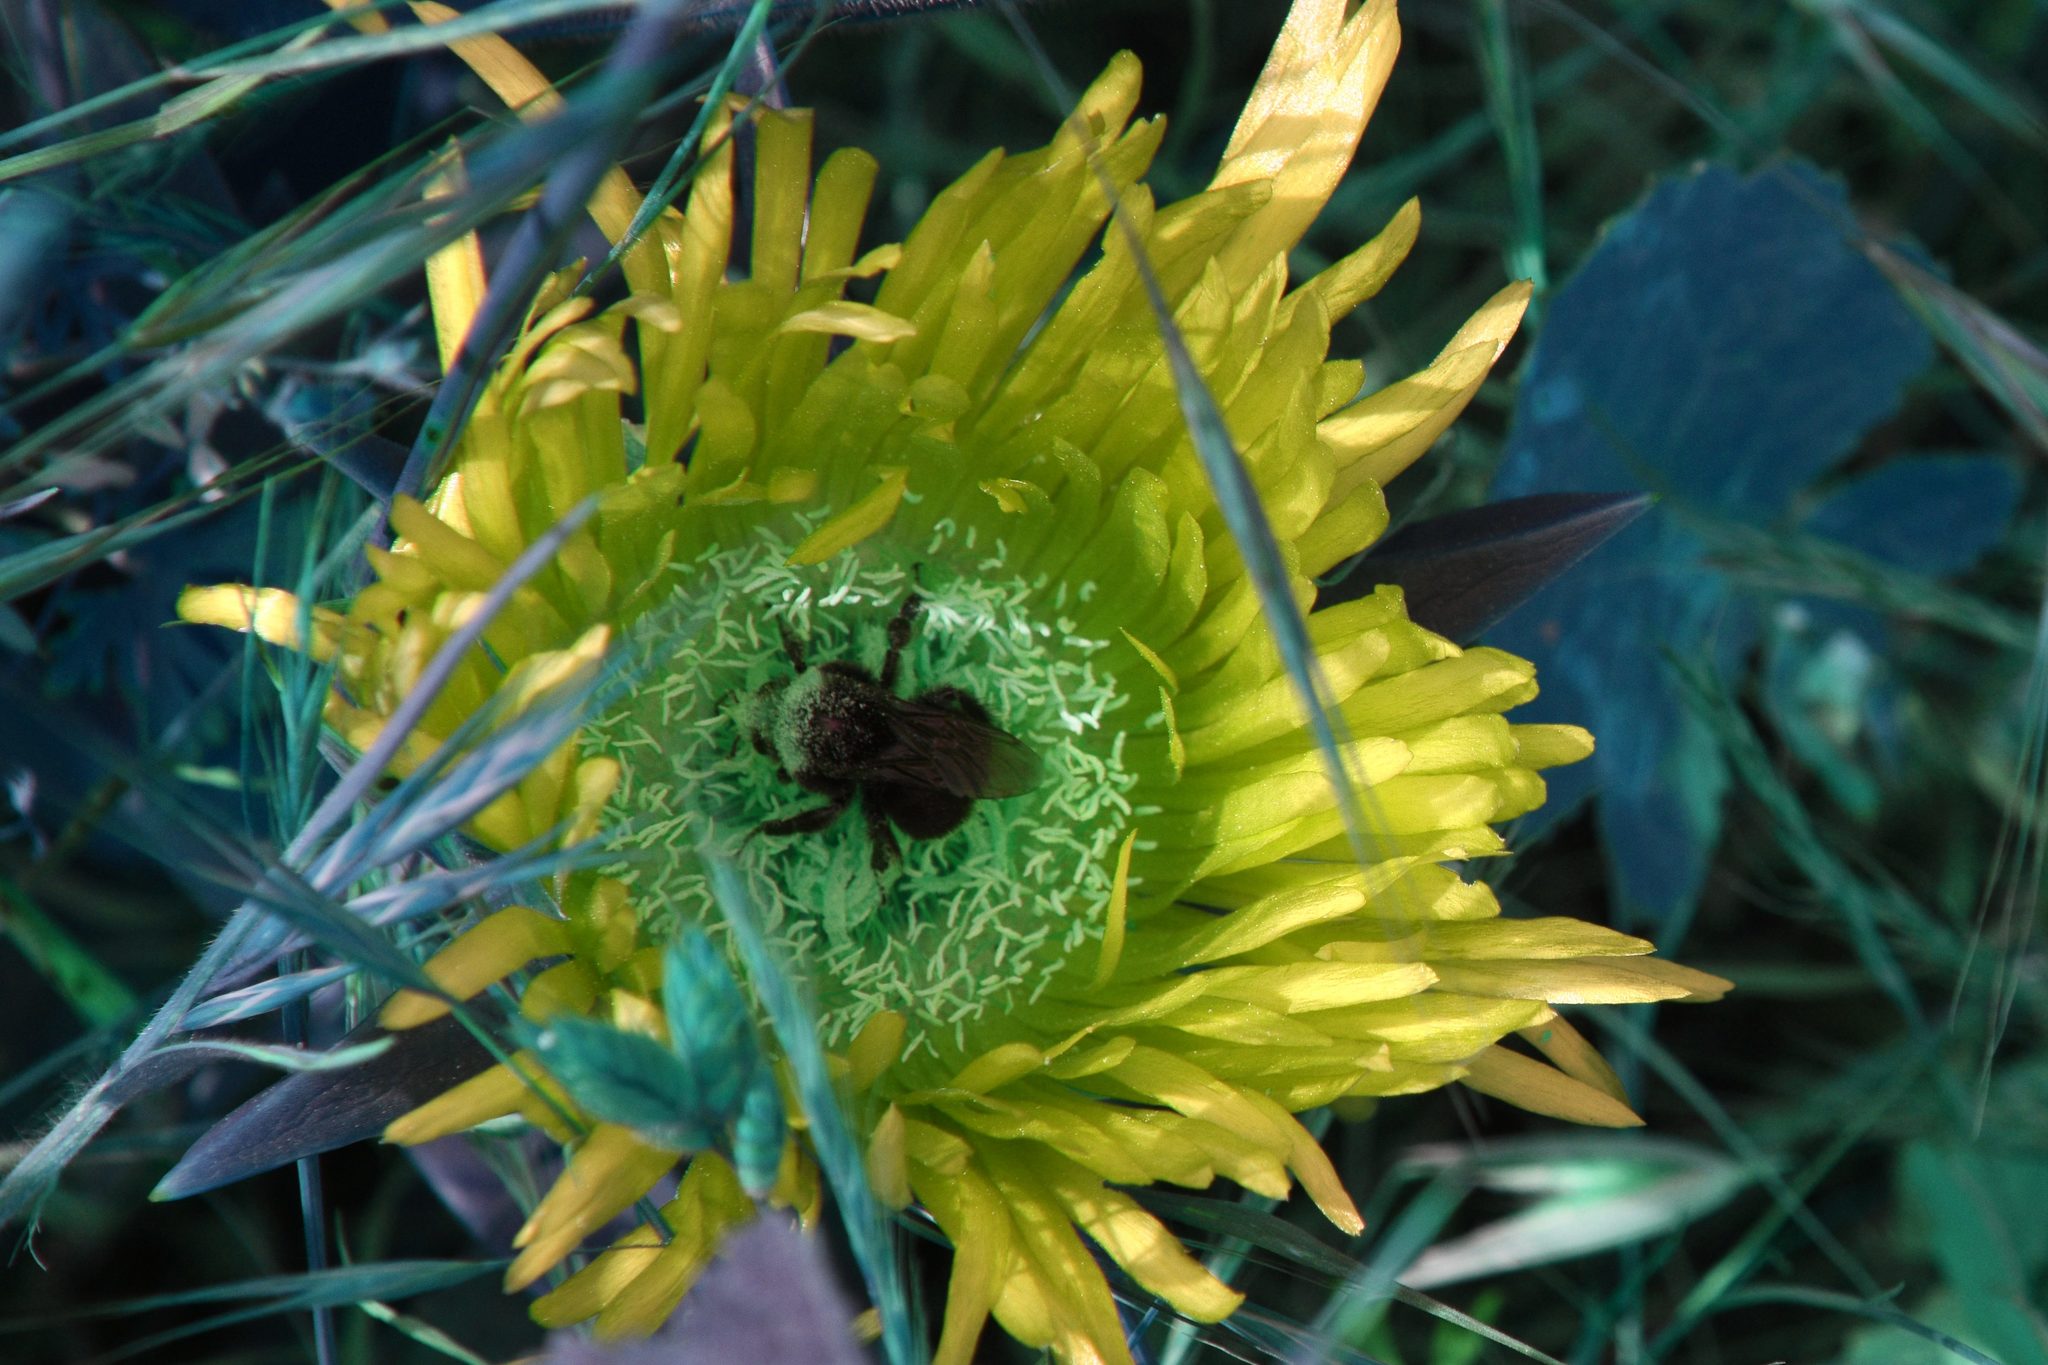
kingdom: Animalia
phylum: Arthropoda
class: Insecta
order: Hymenoptera
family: Apidae
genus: Pyrobombus
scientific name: Pyrobombus
